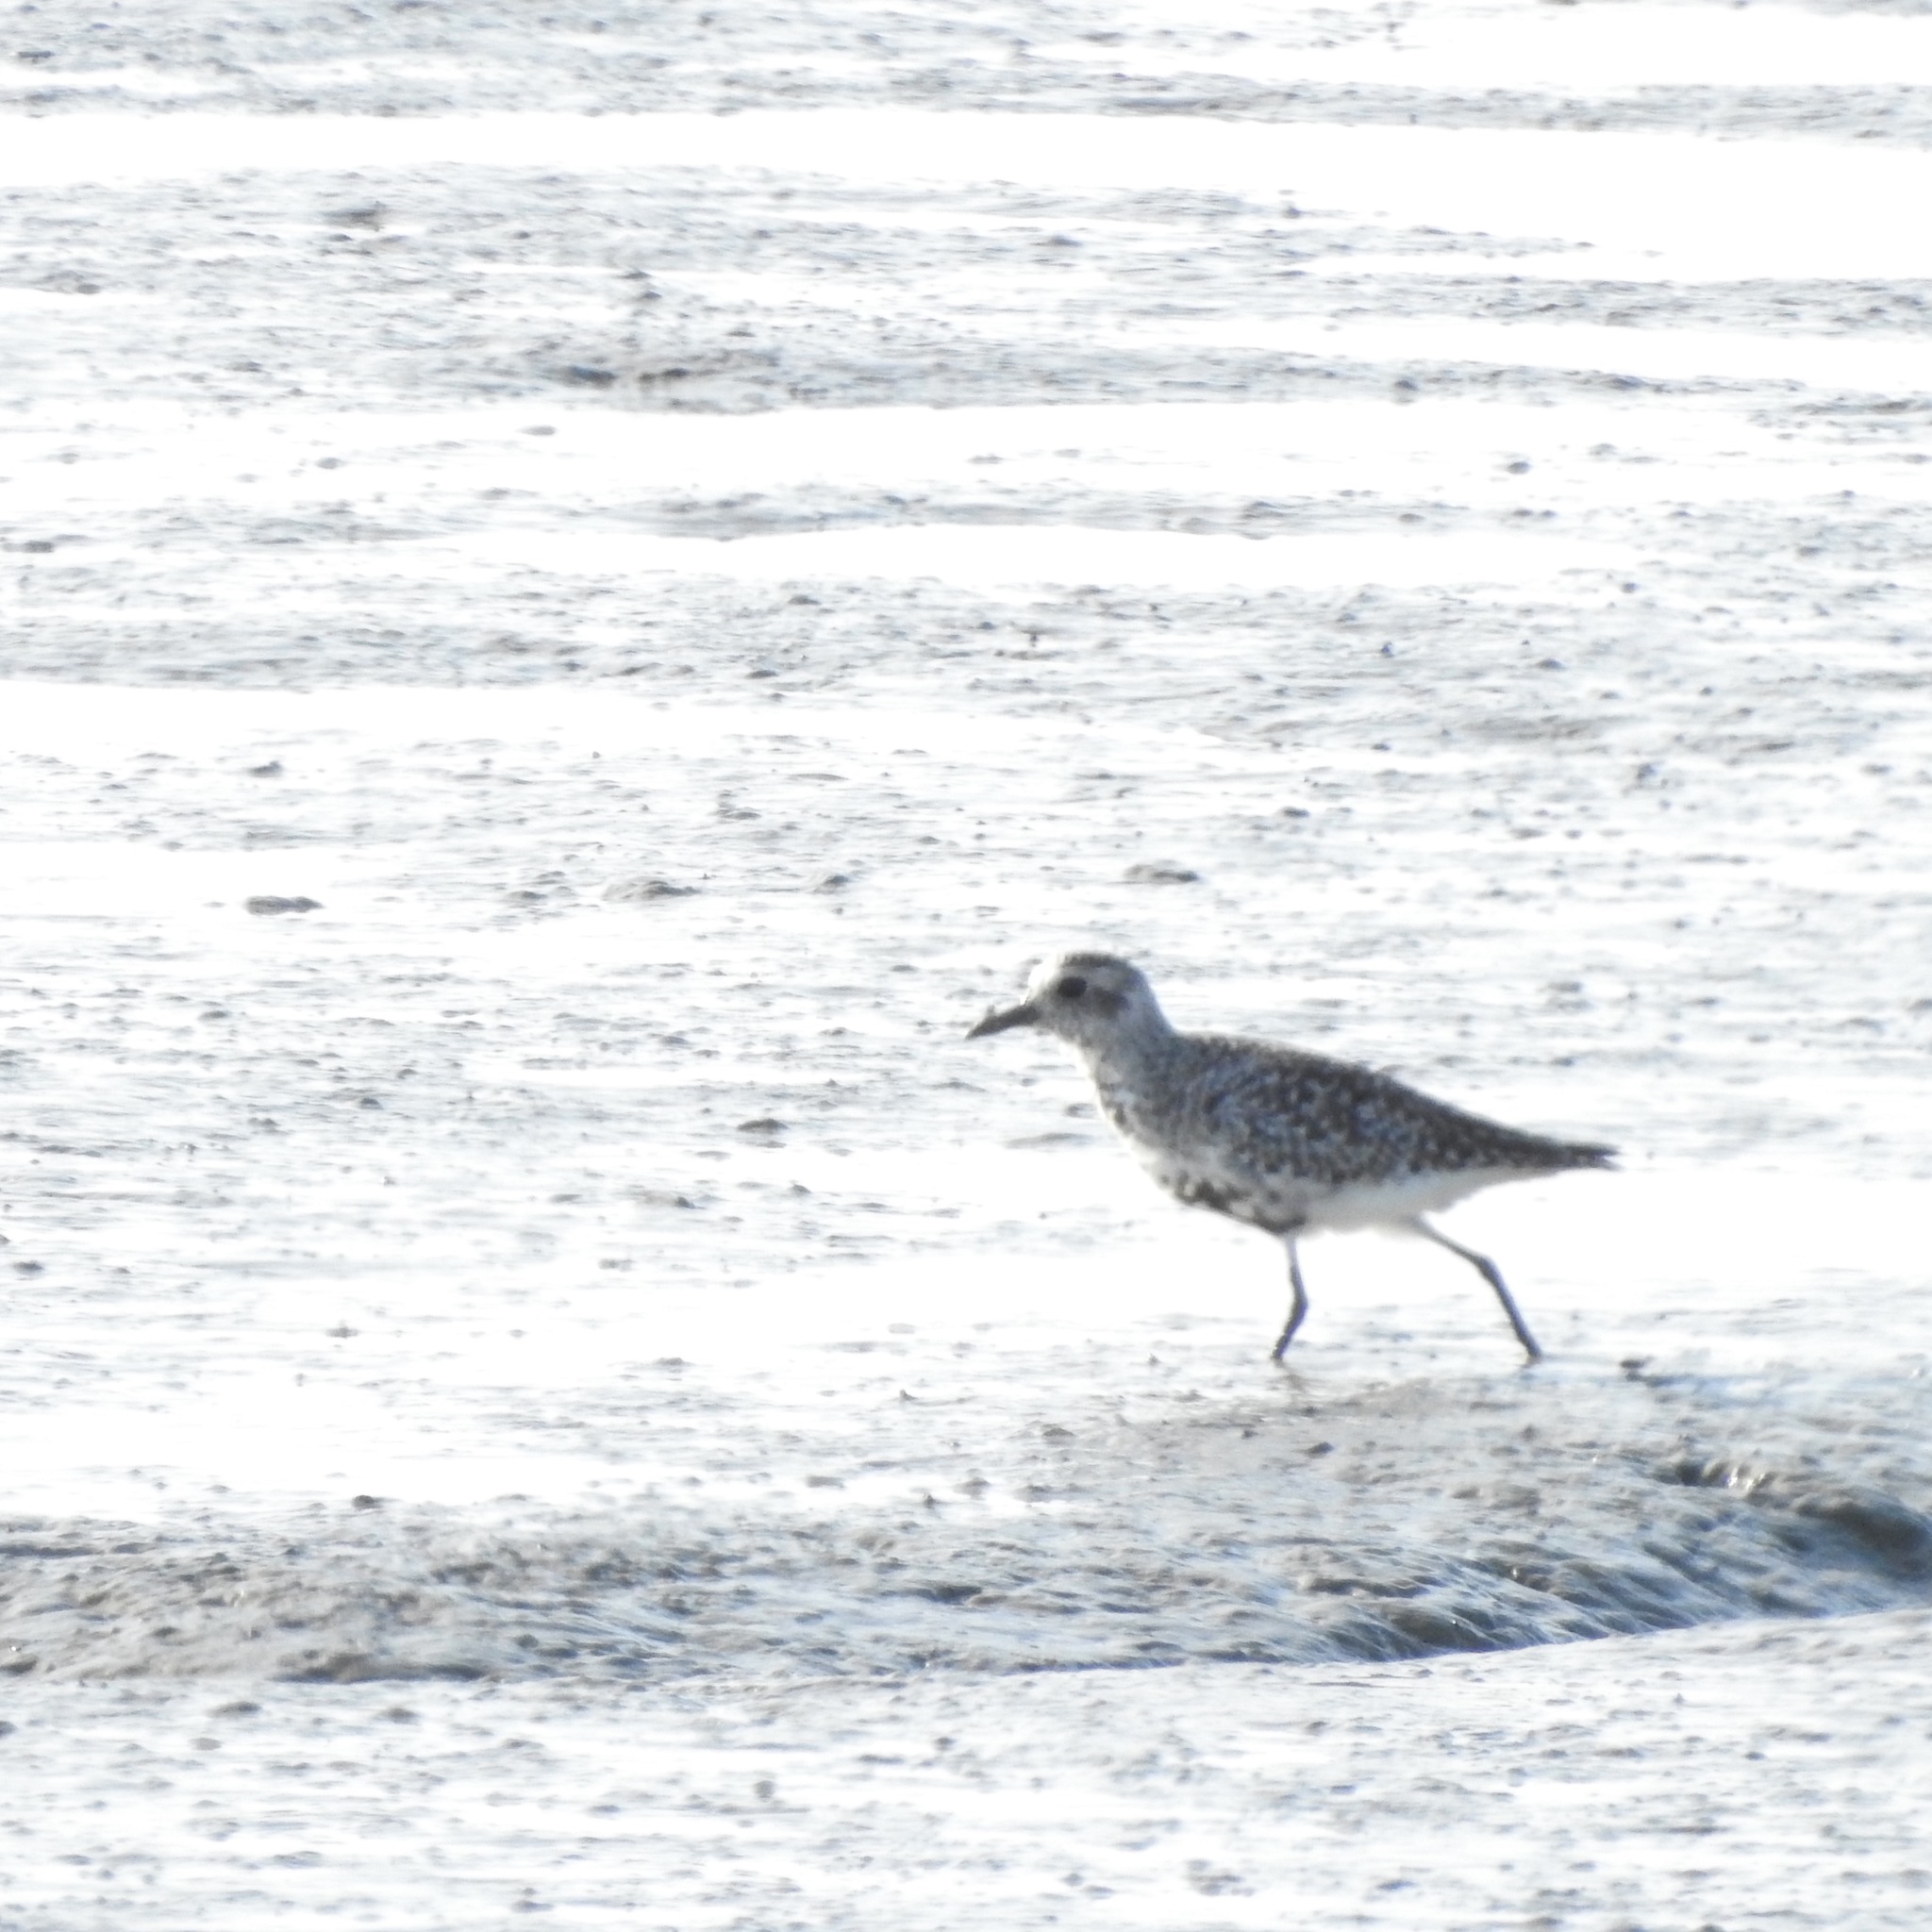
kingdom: Animalia
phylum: Chordata
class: Aves
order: Charadriiformes
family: Charadriidae
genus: Pluvialis
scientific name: Pluvialis squatarola
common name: Grey plover
